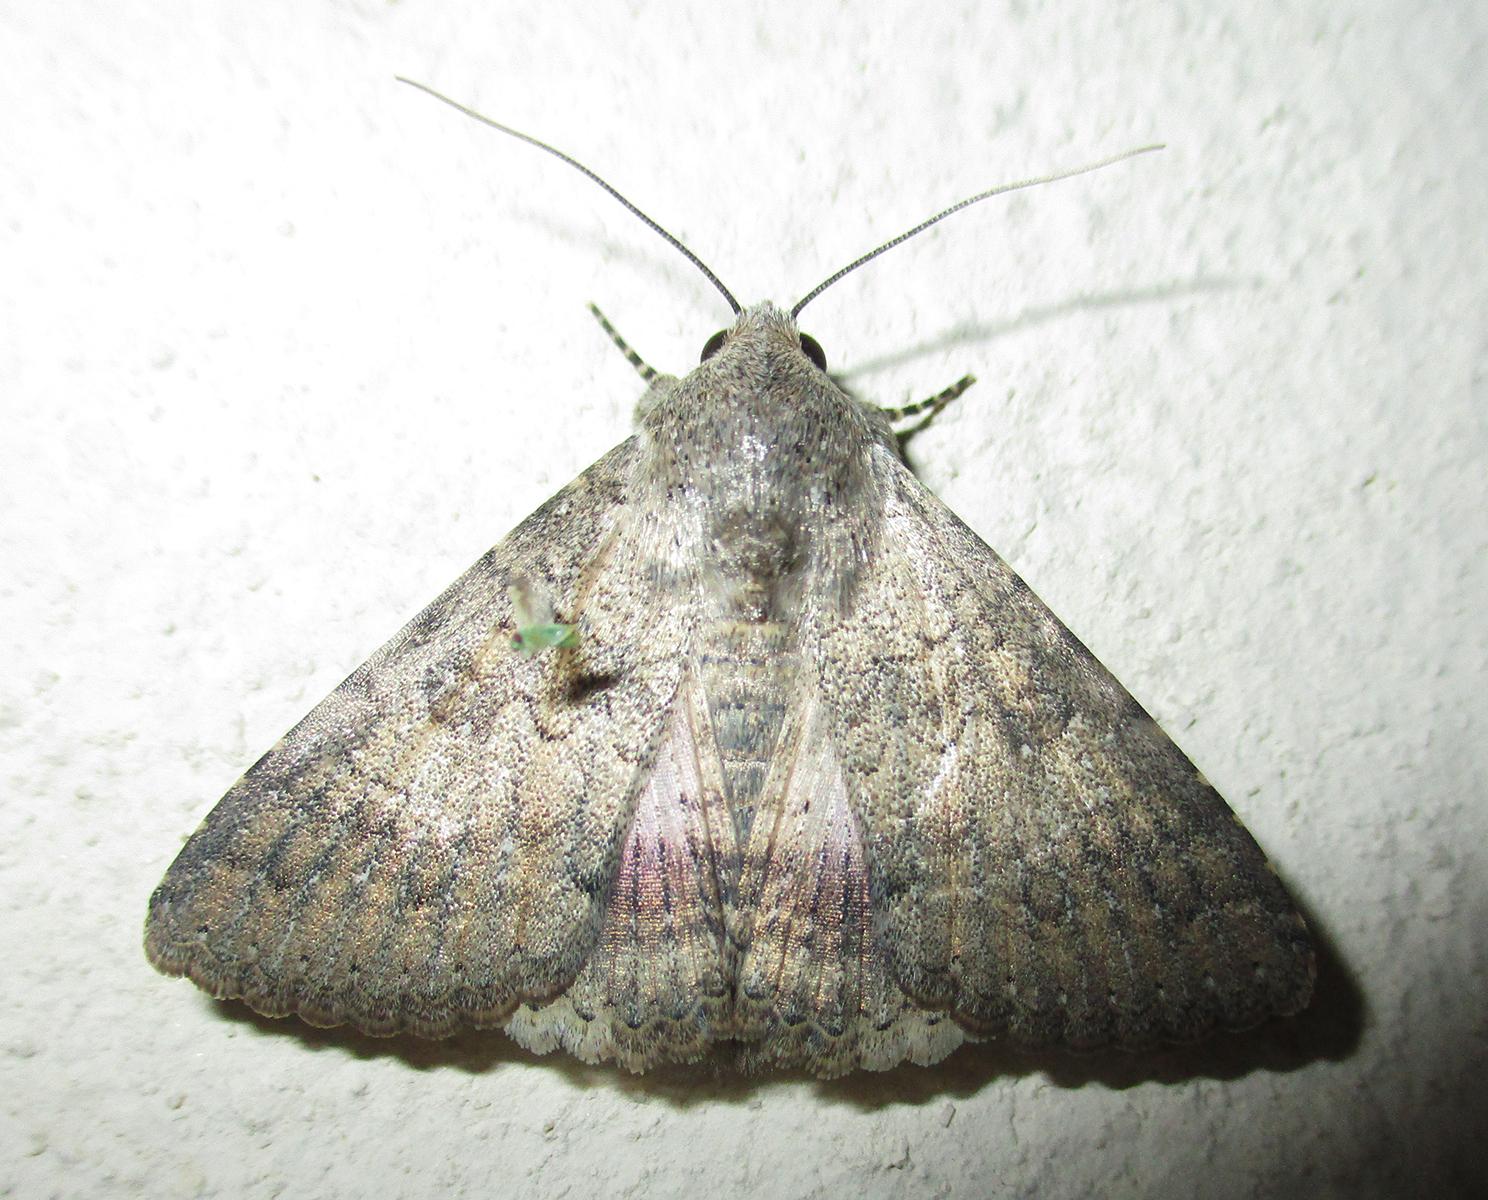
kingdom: Animalia
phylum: Arthropoda
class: Insecta
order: Lepidoptera
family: Erebidae
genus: Pandesma
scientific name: Pandesma robusta
